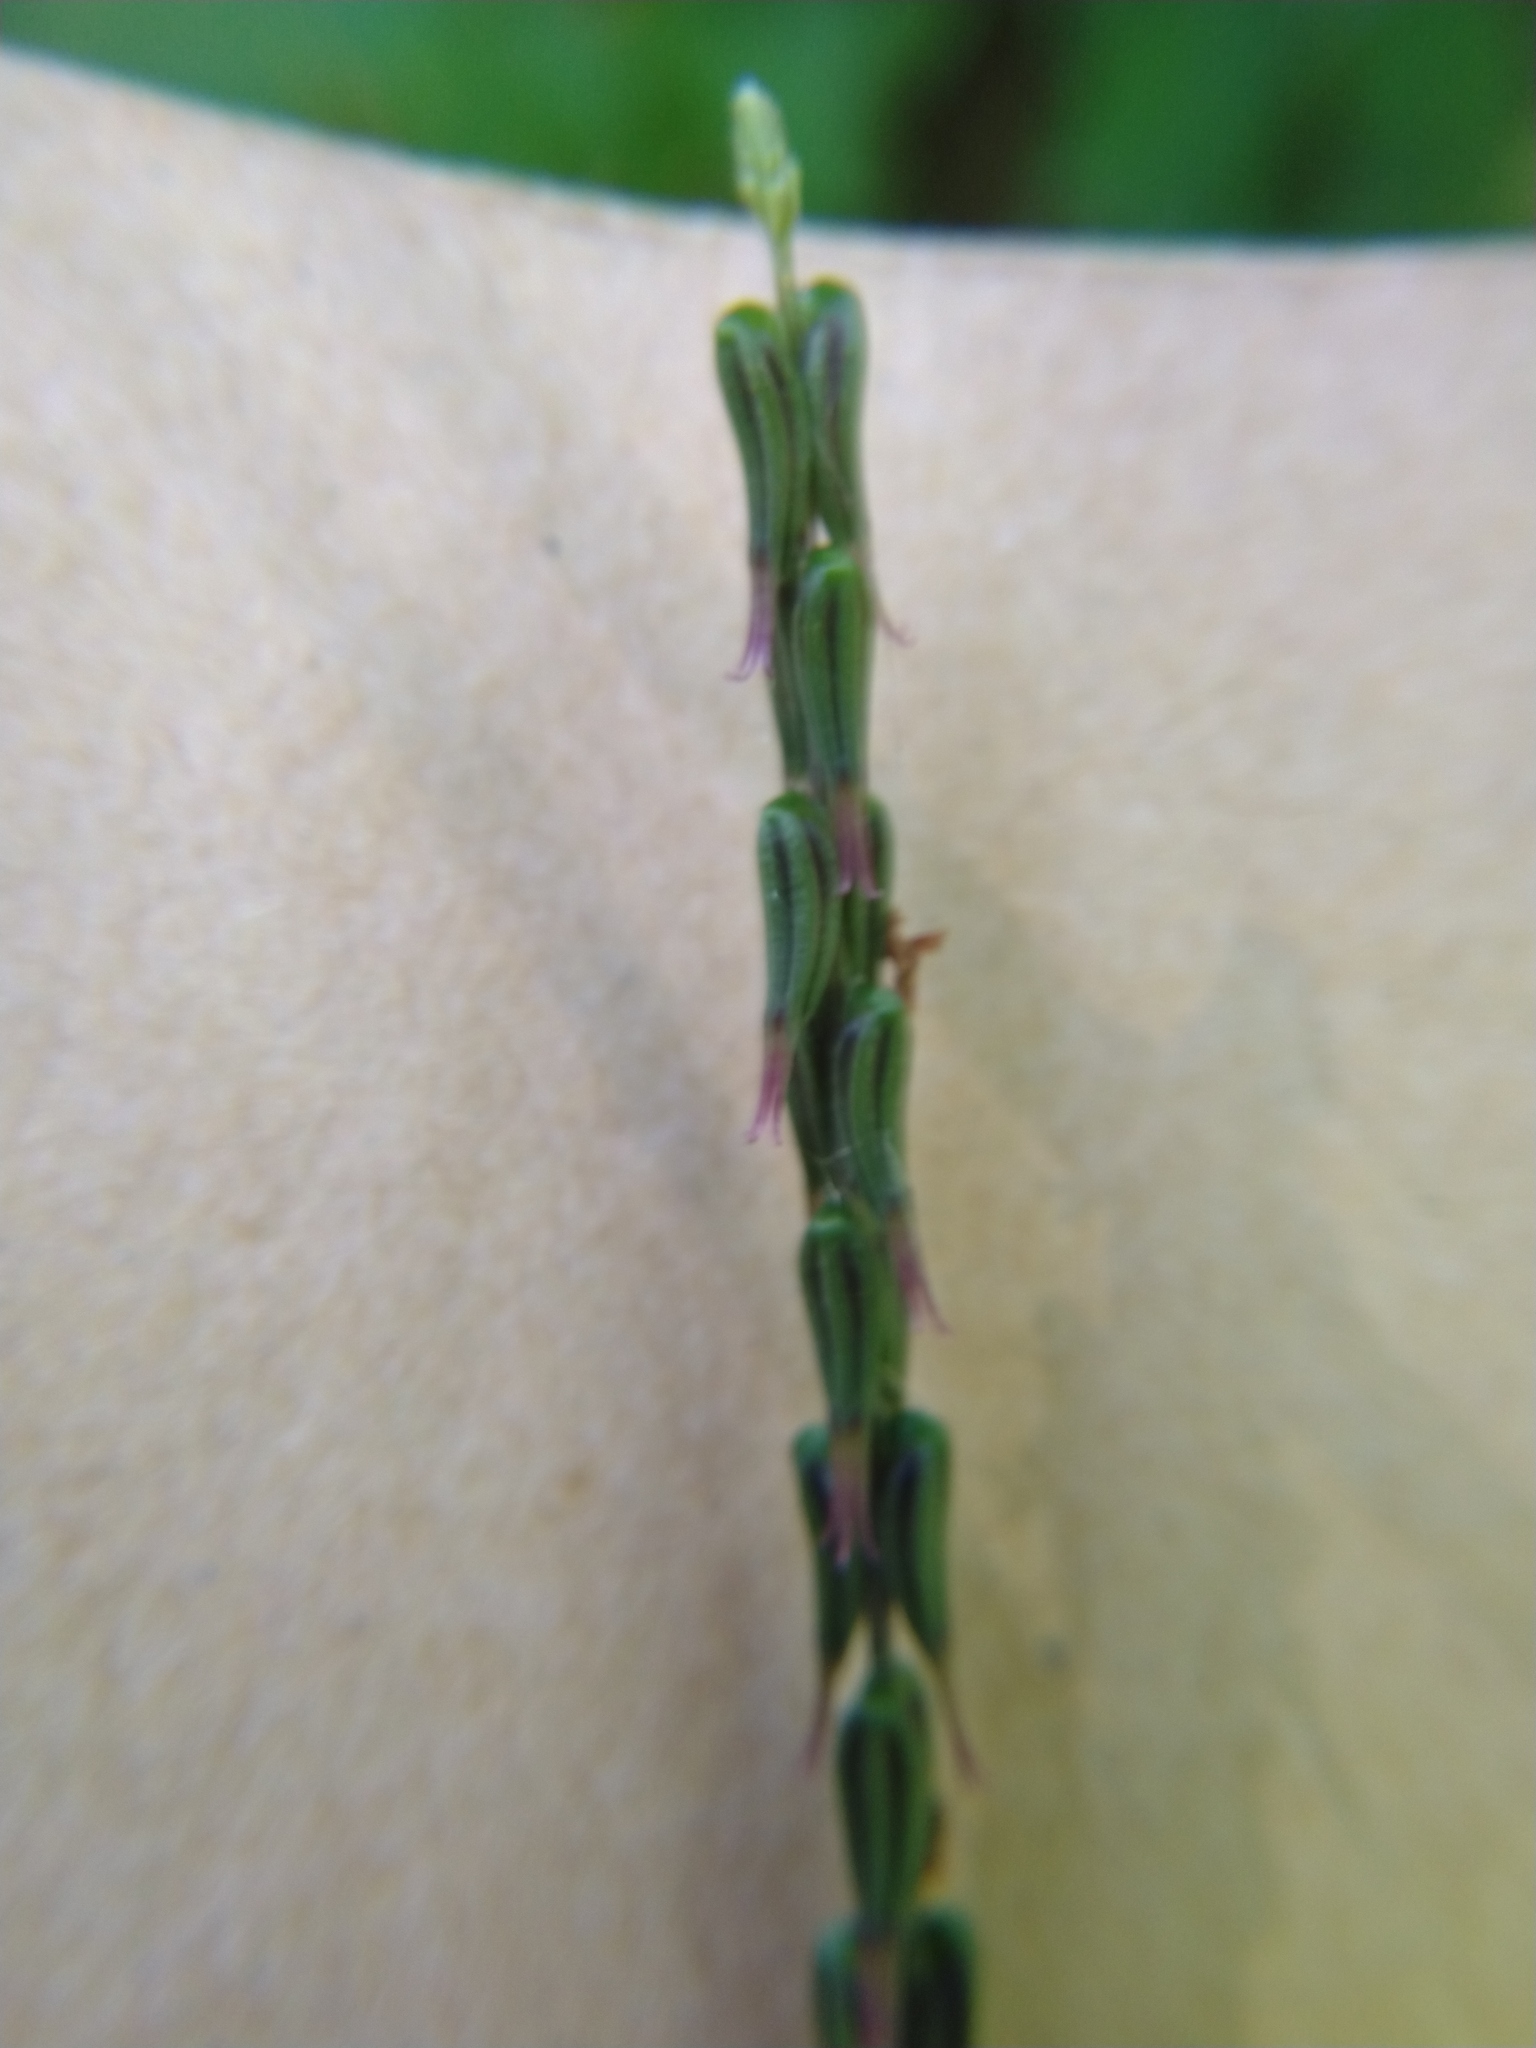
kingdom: Plantae
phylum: Tracheophyta
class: Magnoliopsida
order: Lamiales
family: Phrymaceae
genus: Phryma
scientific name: Phryma leptostachya
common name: American lopseed
